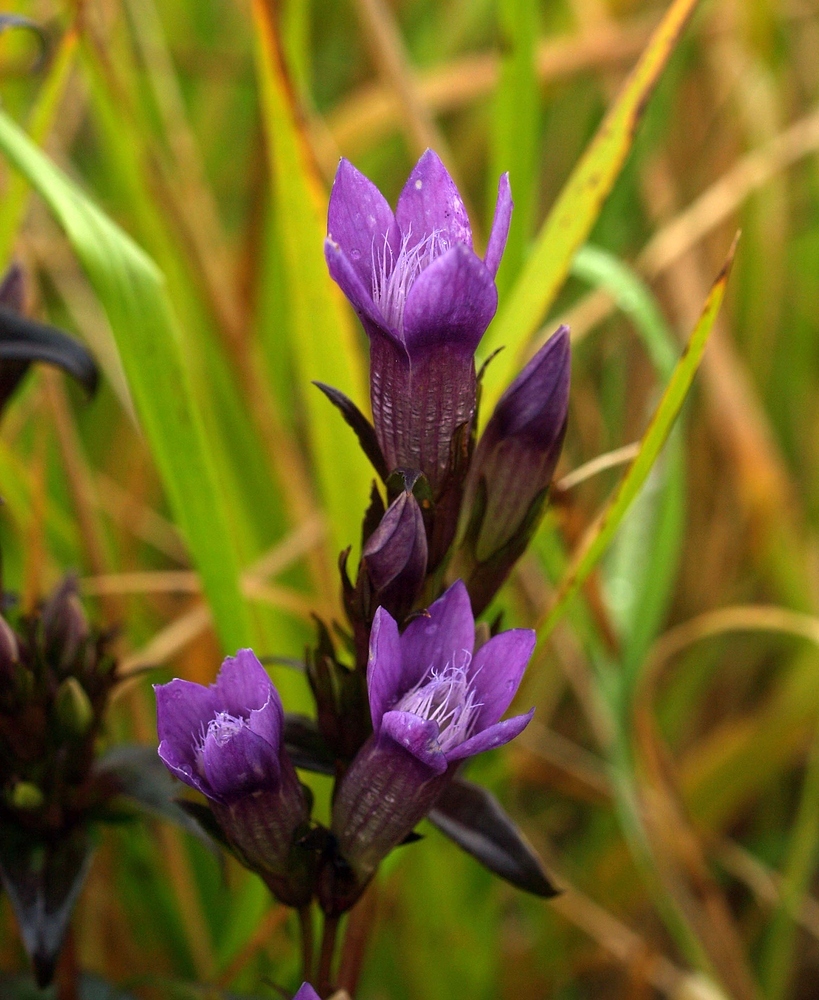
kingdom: Plantae
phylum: Tracheophyta
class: Magnoliopsida
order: Gentianales
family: Gentianaceae
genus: Gentianella
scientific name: Gentianella germanica
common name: Chiltern-gentian
